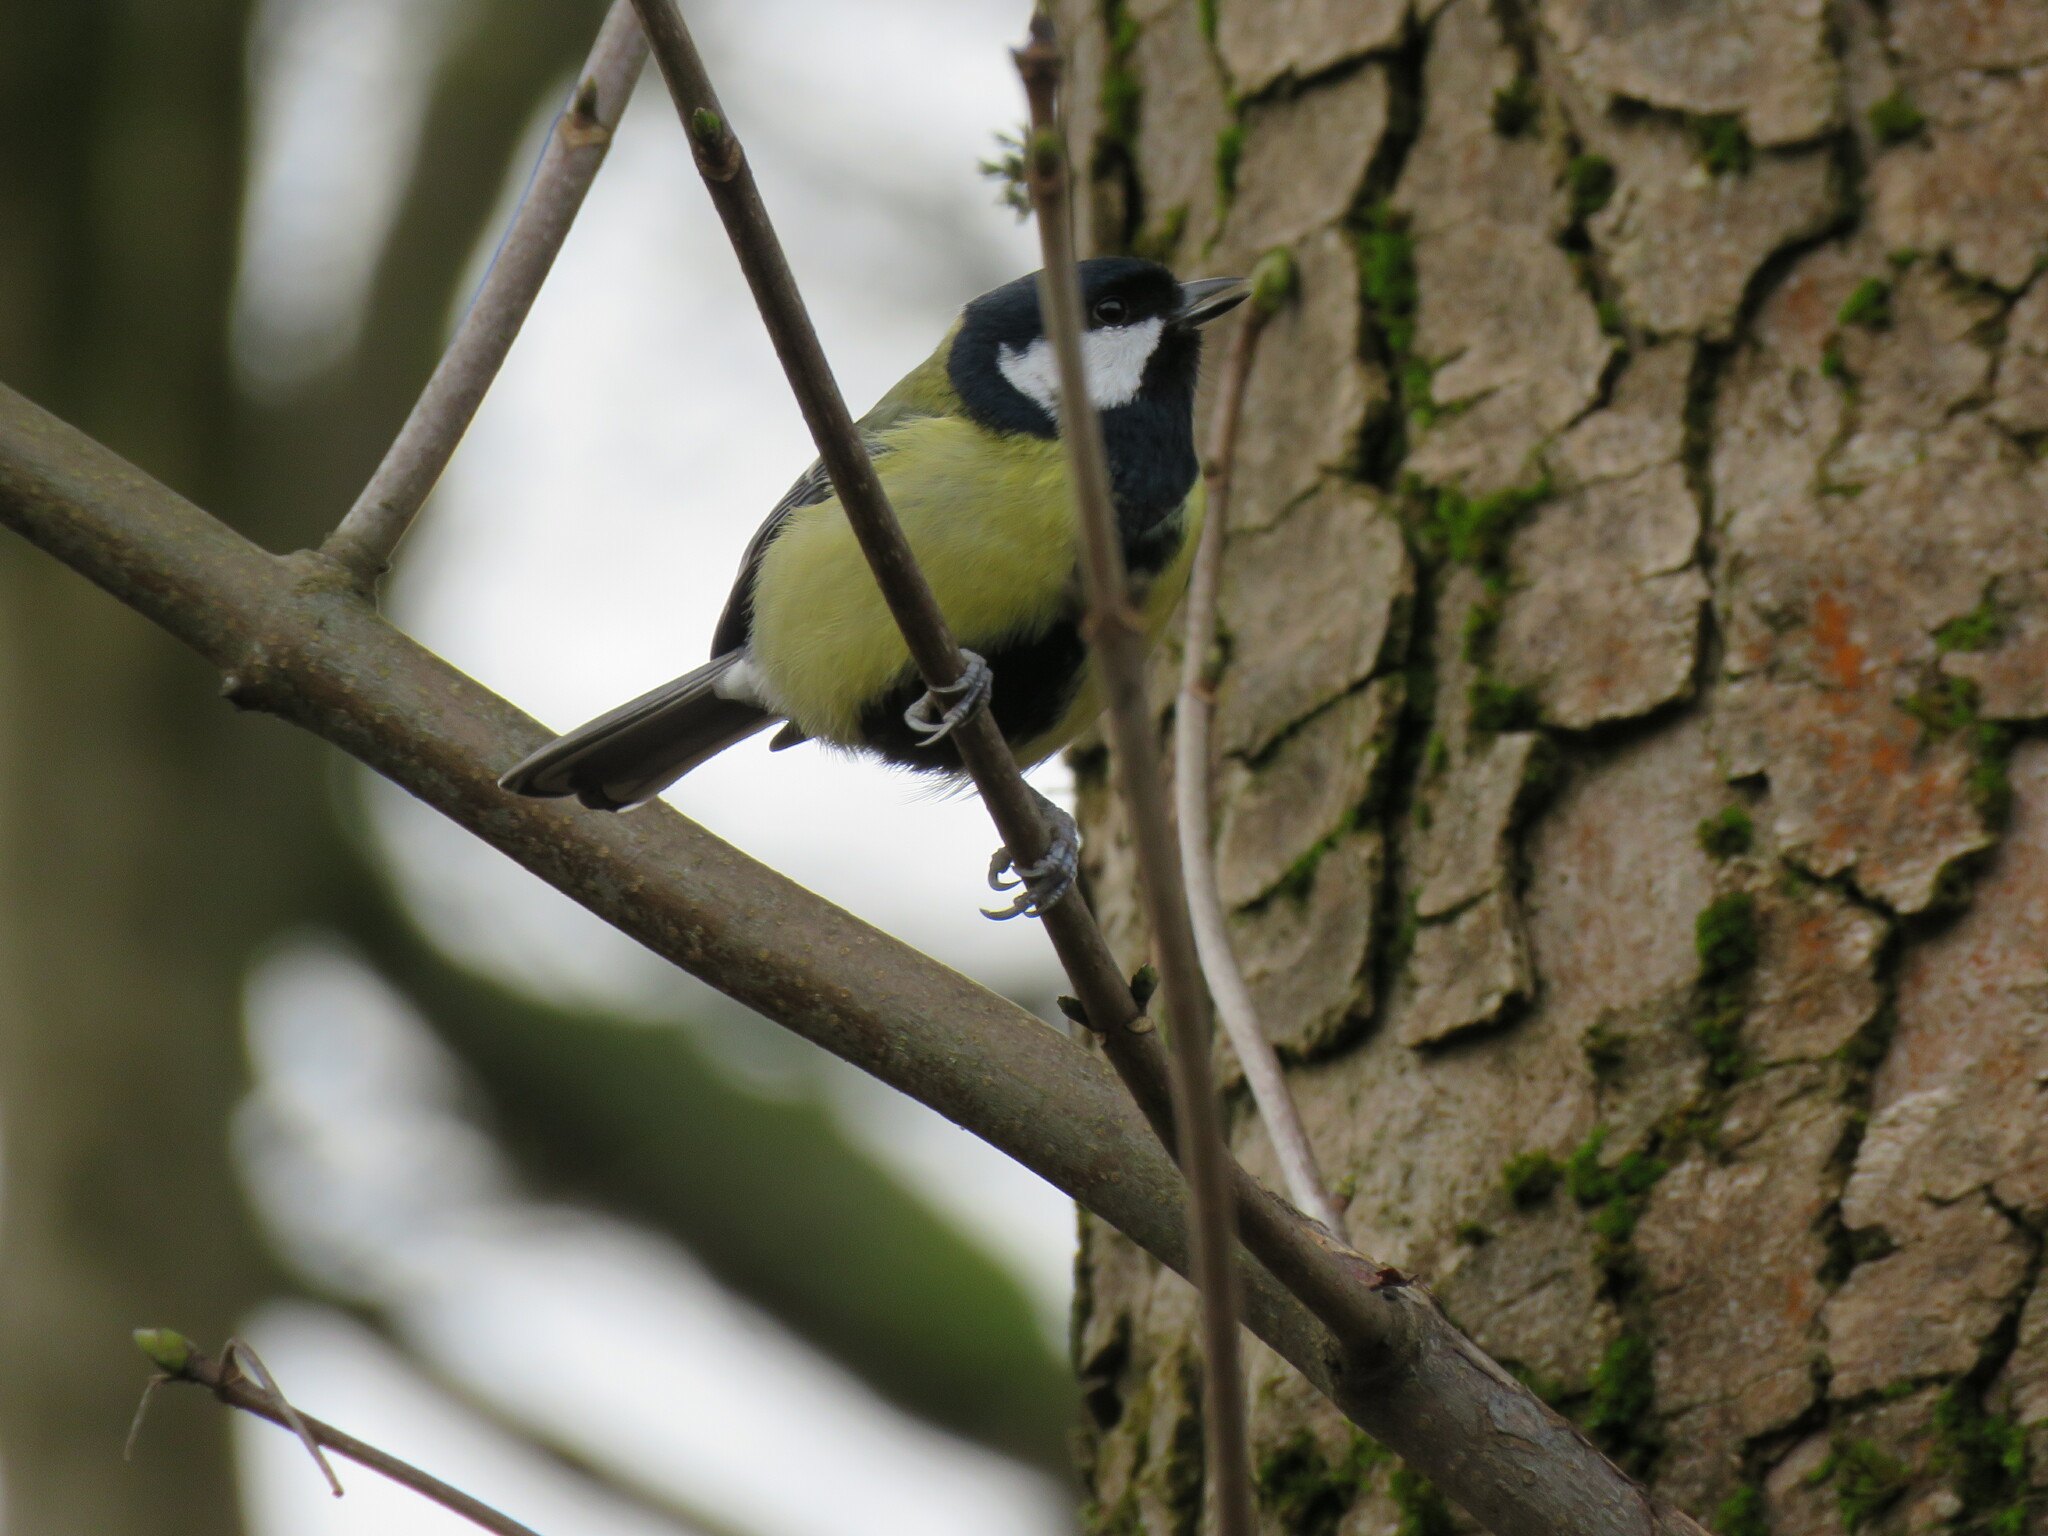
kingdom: Animalia
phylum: Chordata
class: Aves
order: Passeriformes
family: Paridae
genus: Parus
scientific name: Parus major
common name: Great tit
